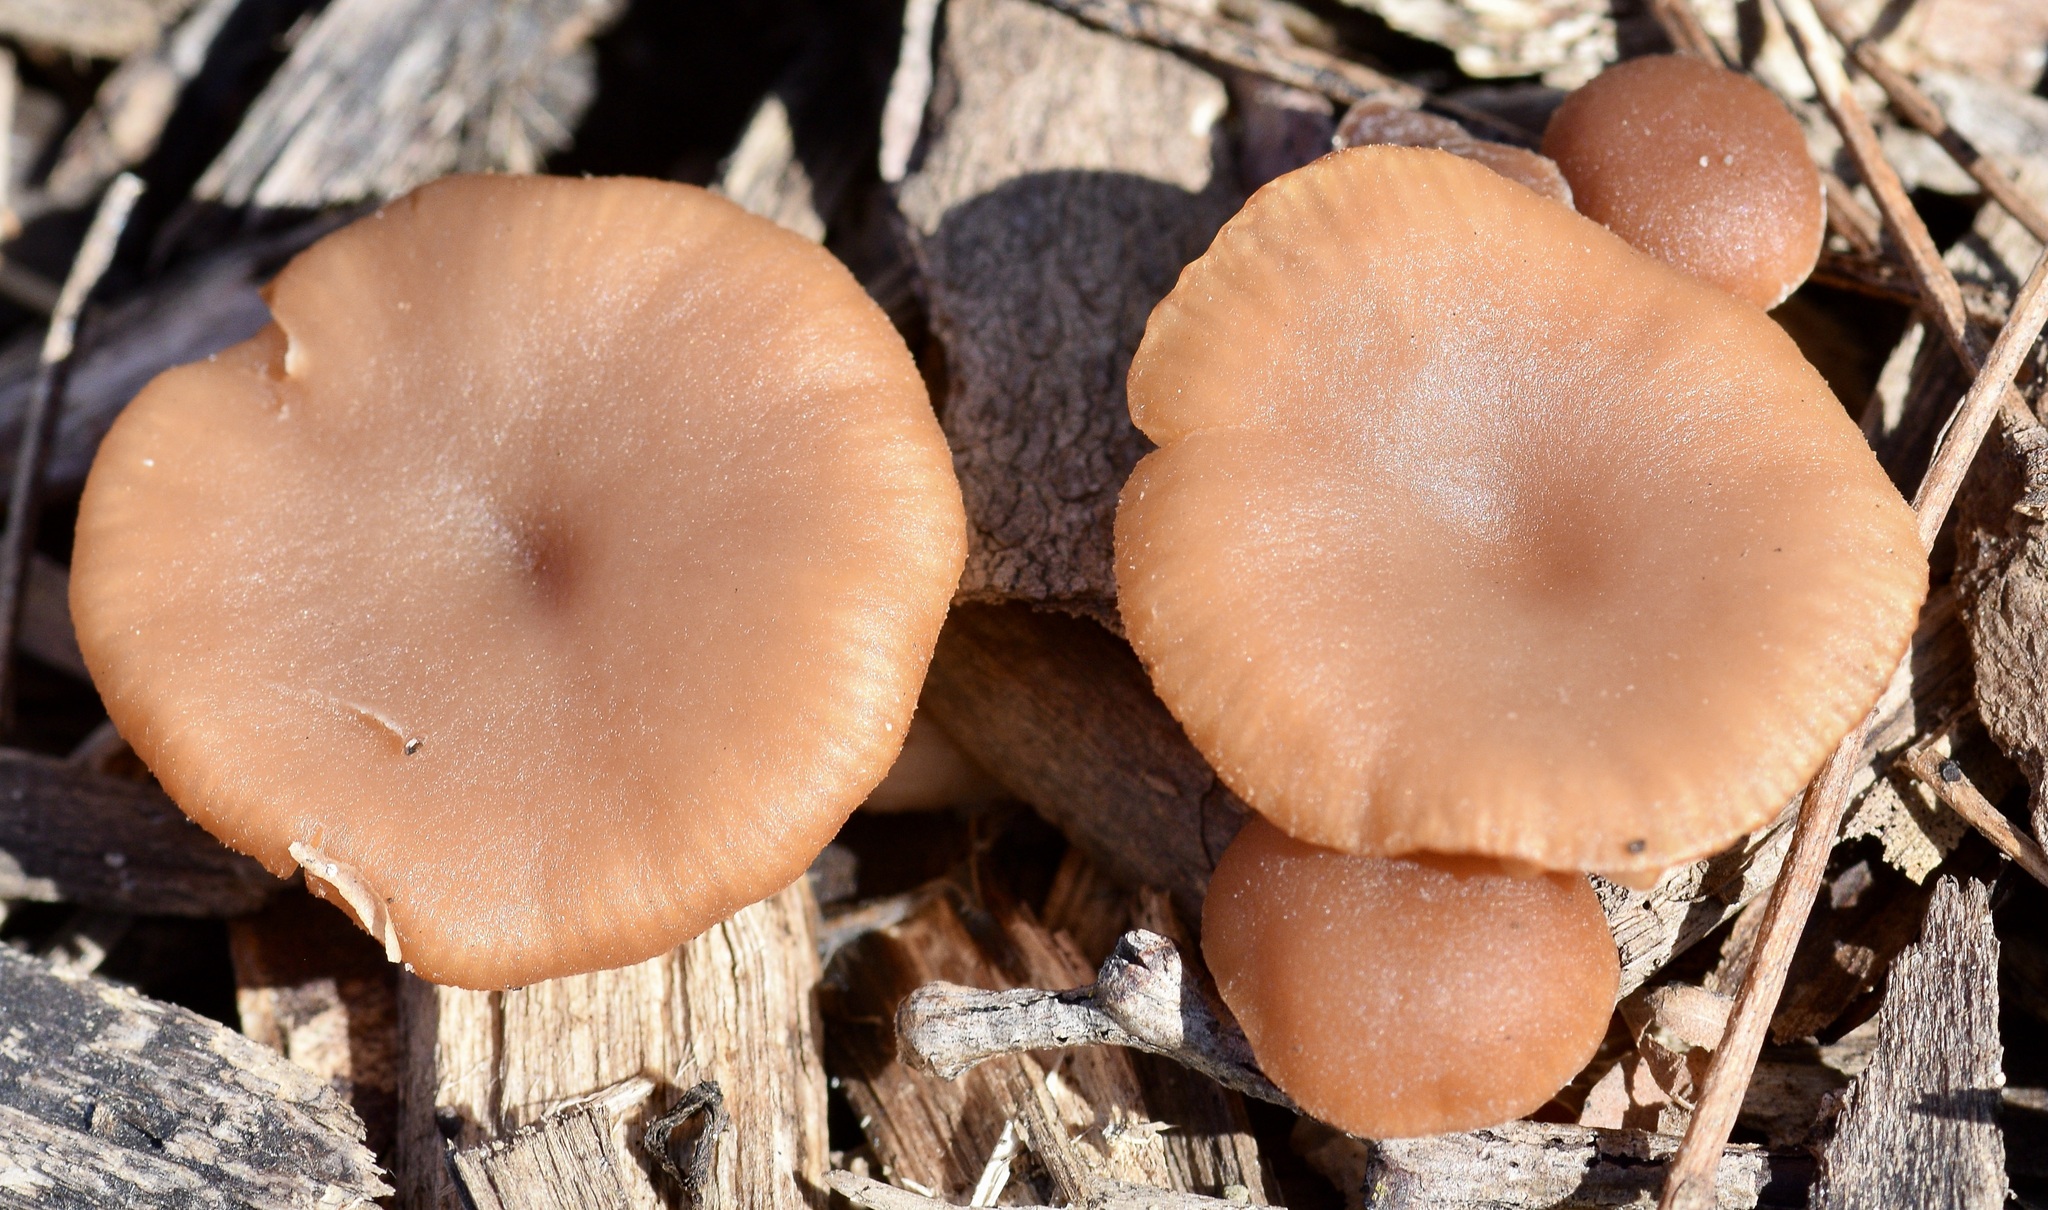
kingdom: Fungi
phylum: Basidiomycota
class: Agaricomycetes
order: Agaricales
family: Hydnangiaceae
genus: Laccaria
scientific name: Laccaria laccata
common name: Deceiver
